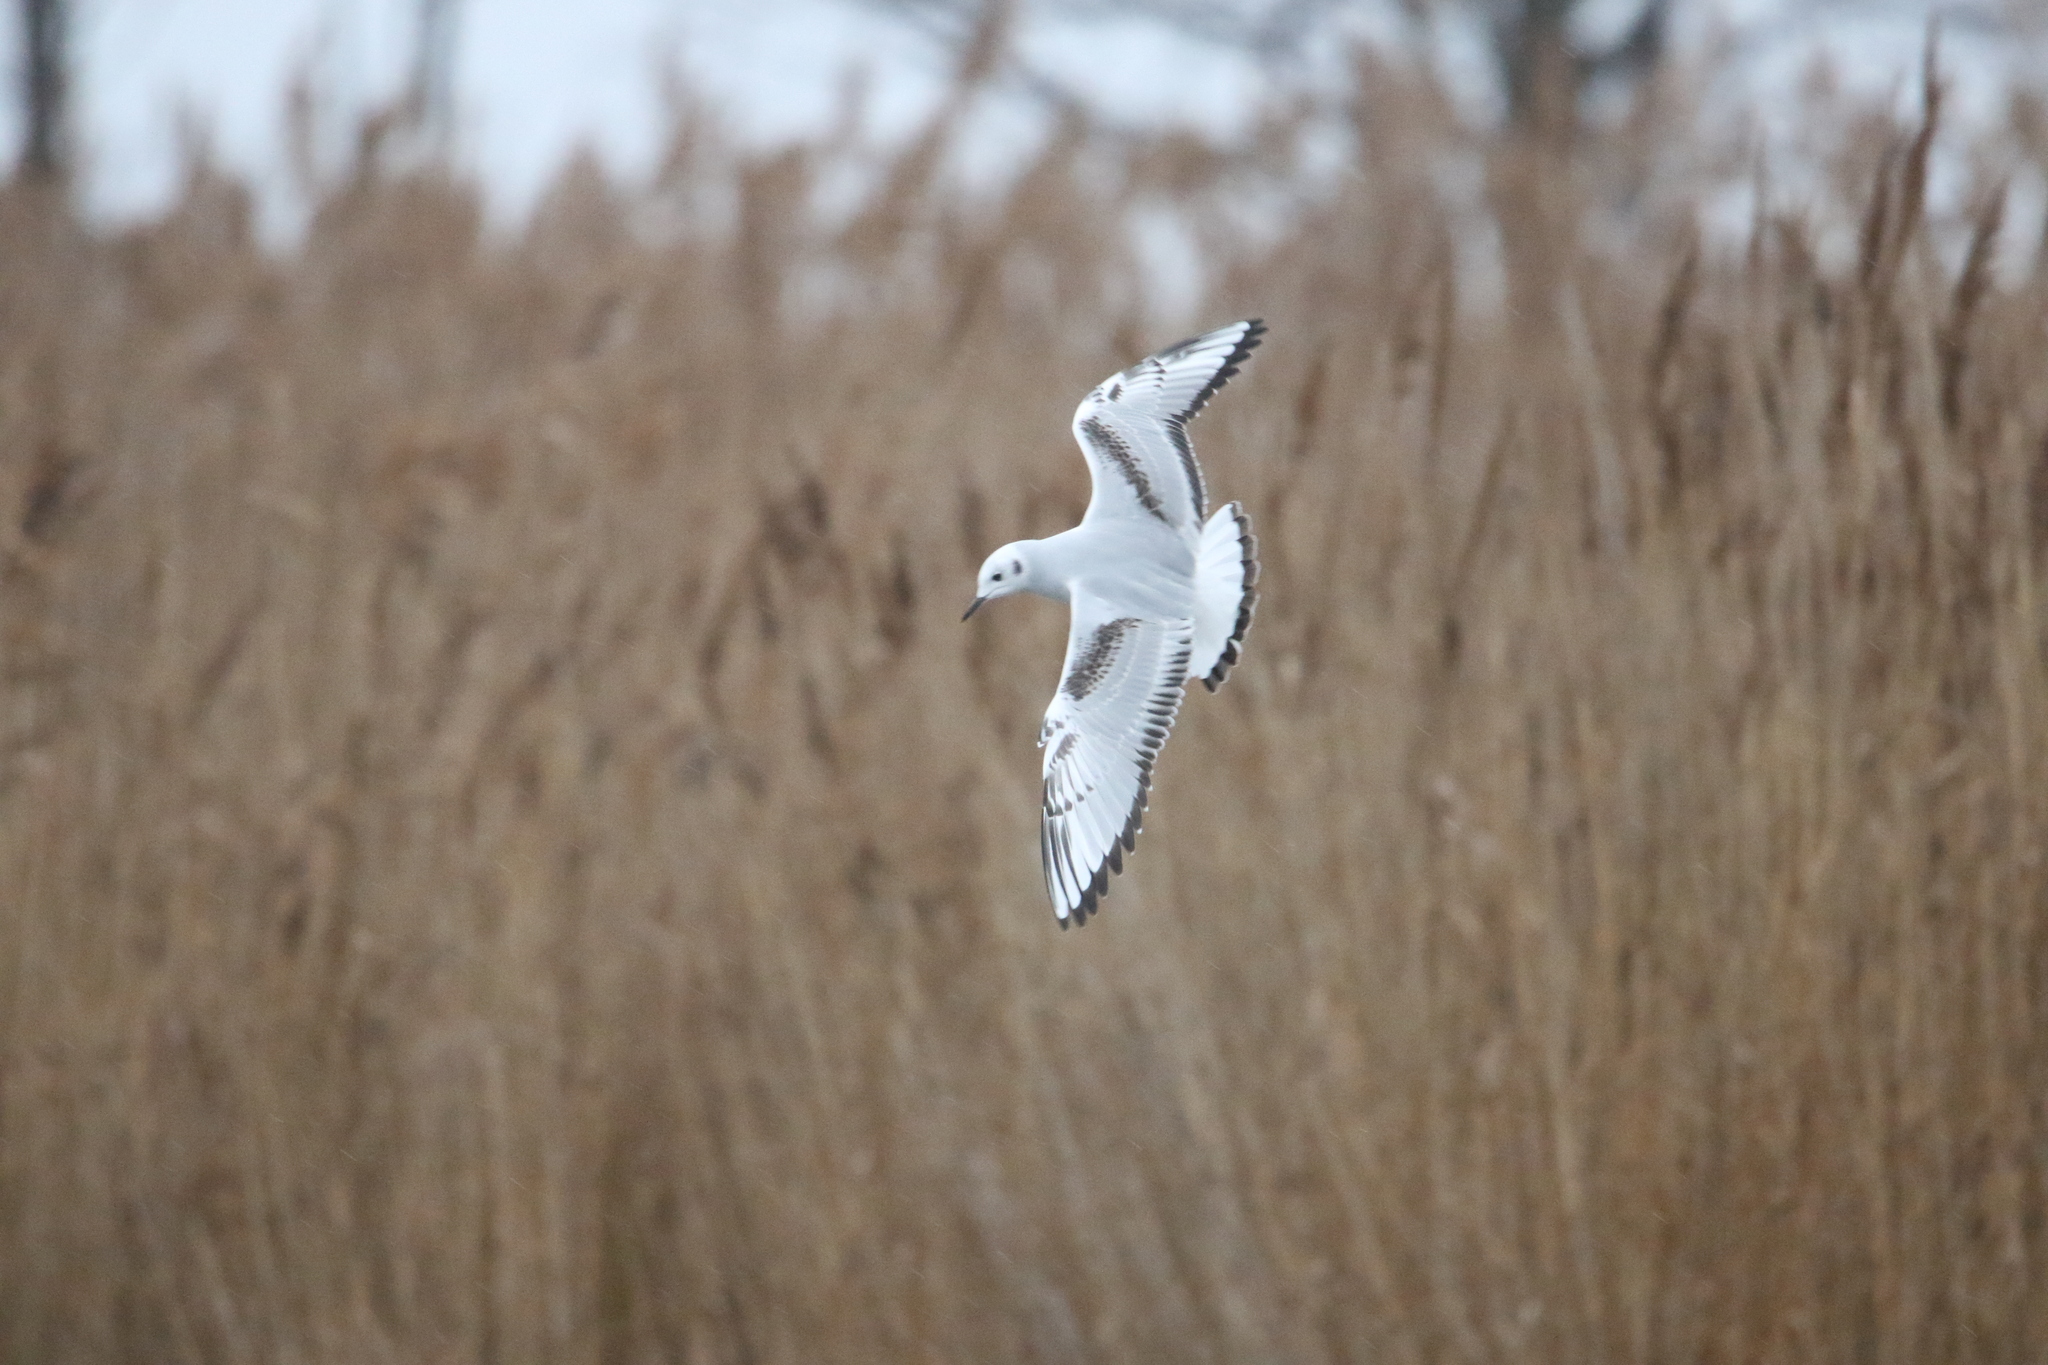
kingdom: Animalia
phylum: Chordata
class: Aves
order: Charadriiformes
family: Laridae
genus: Chroicocephalus
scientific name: Chroicocephalus philadelphia
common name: Bonaparte's gull
